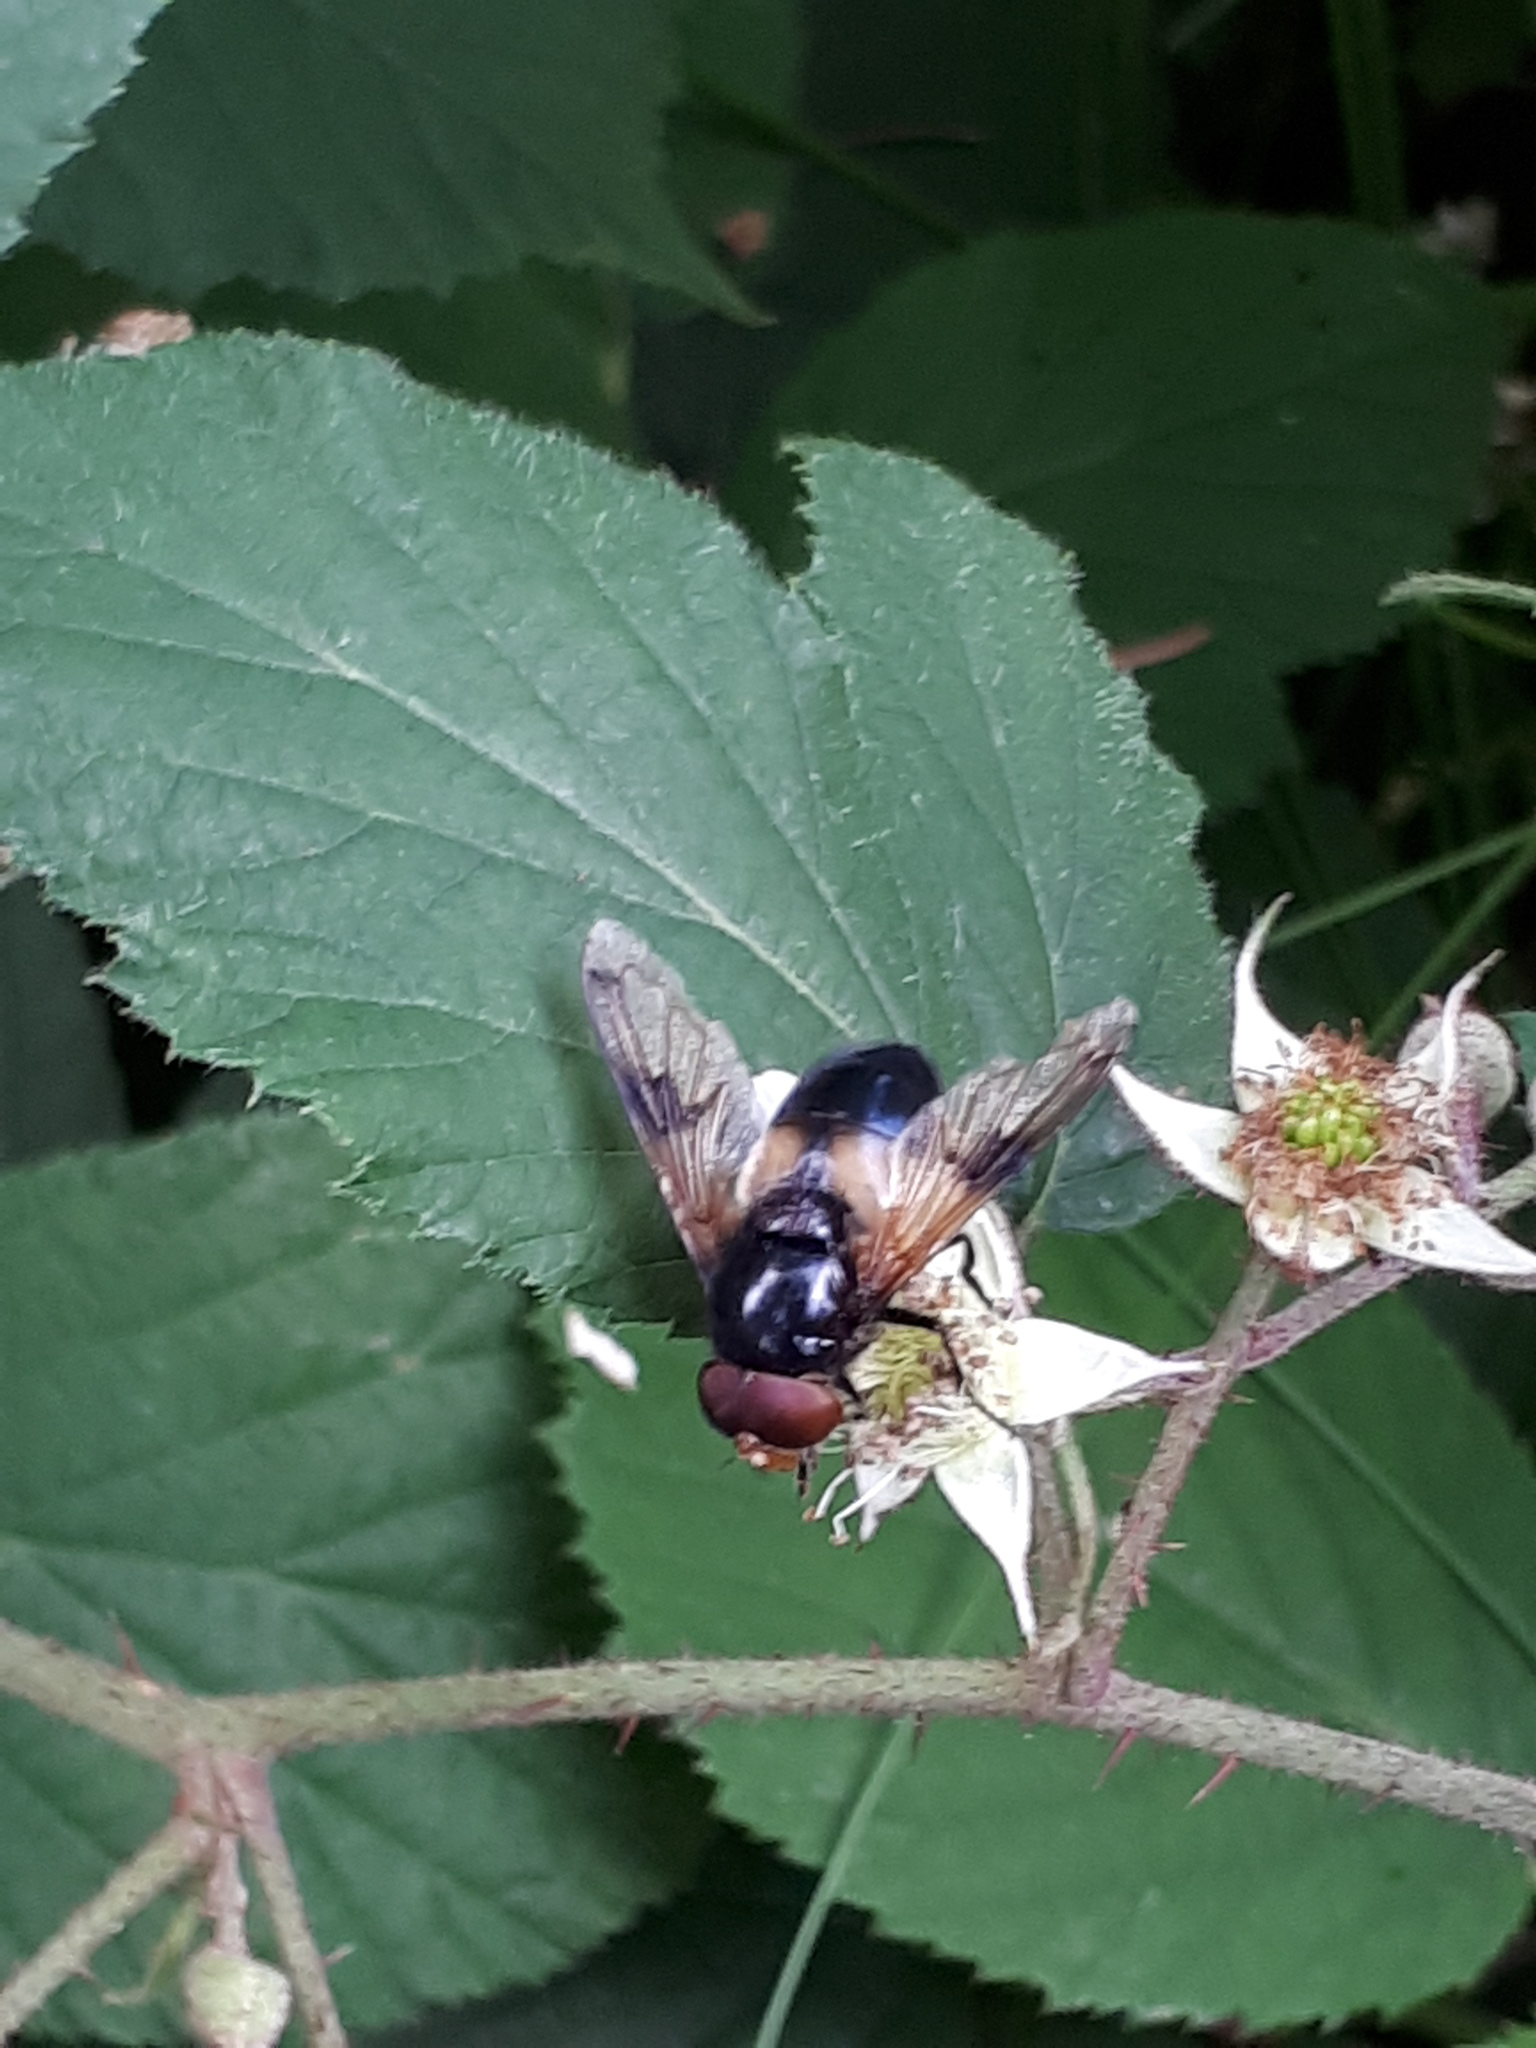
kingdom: Animalia
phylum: Arthropoda
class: Insecta
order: Diptera
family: Syrphidae
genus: Volucella
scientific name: Volucella pellucens
